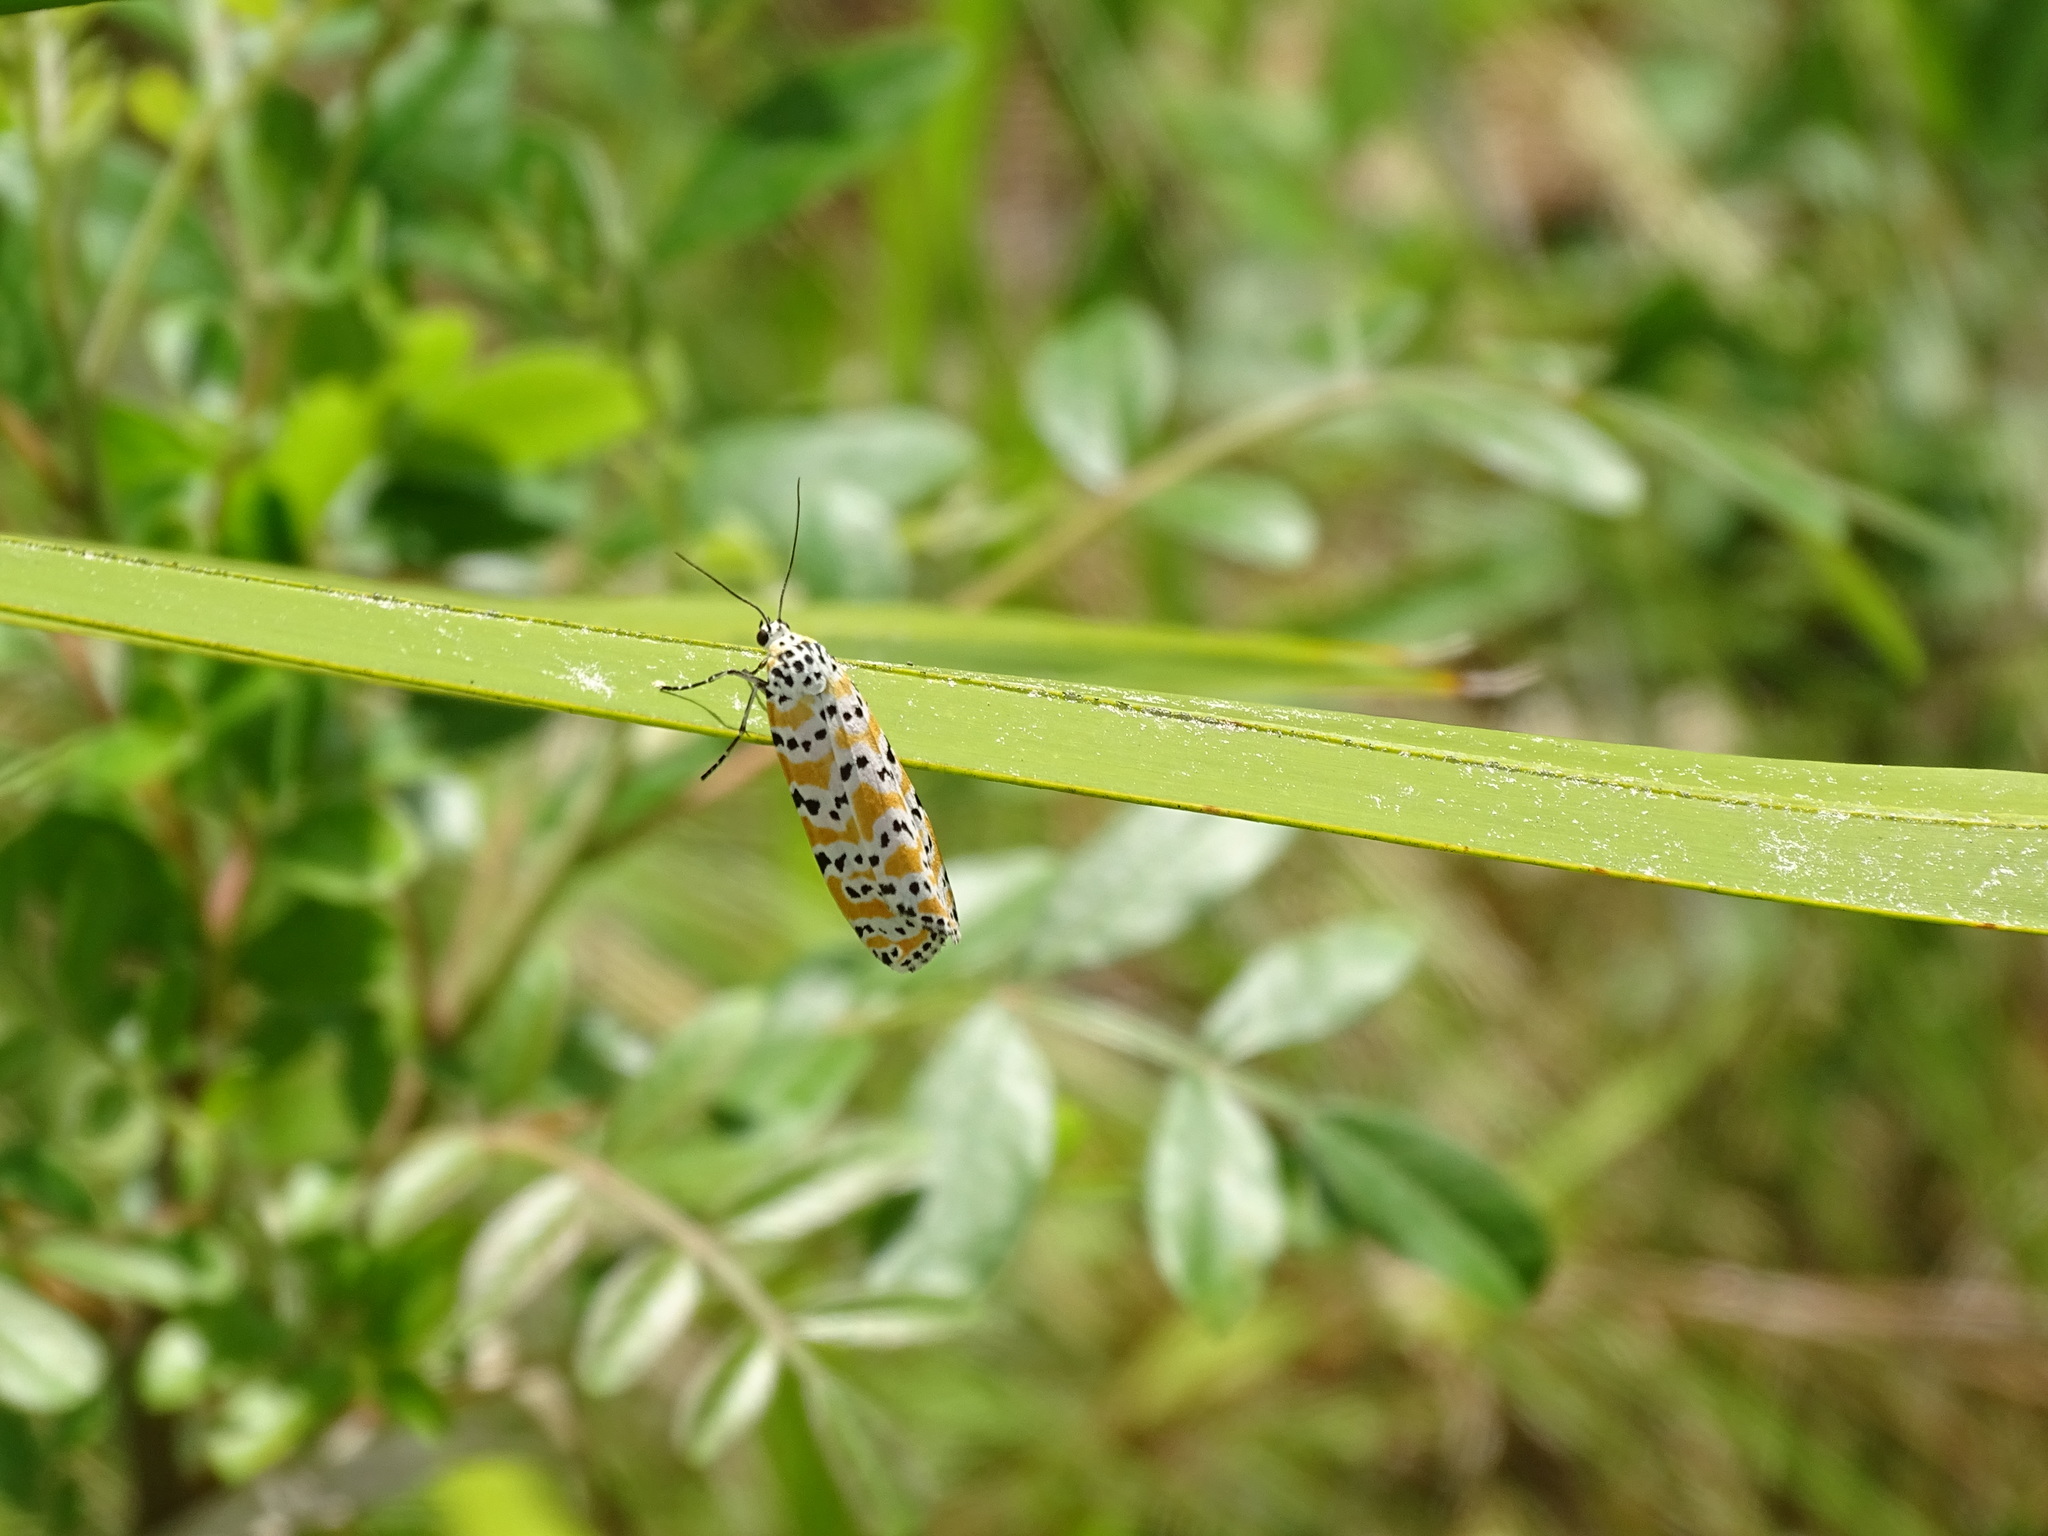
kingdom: Animalia
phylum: Arthropoda
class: Insecta
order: Lepidoptera
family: Erebidae
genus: Utetheisa
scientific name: Utetheisa ornatrix
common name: Beautiful utetheisa
